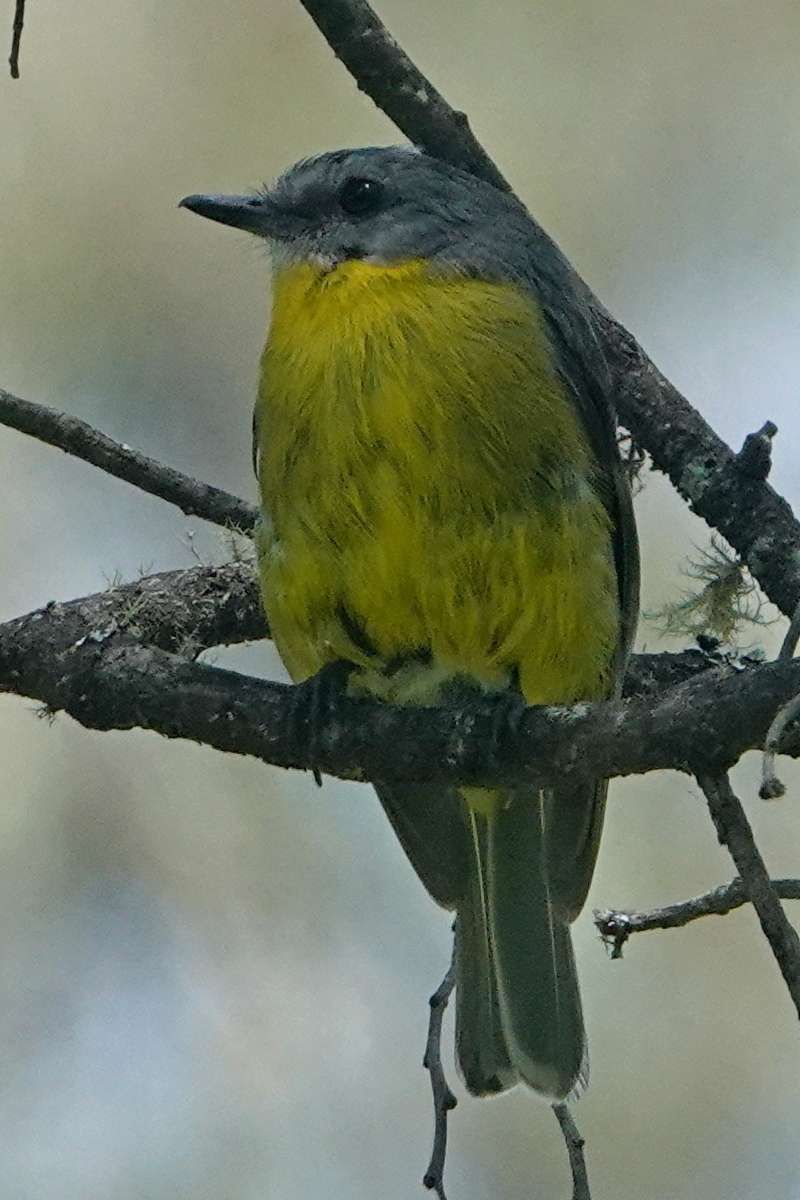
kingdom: Animalia
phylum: Chordata
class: Aves
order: Passeriformes
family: Petroicidae
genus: Eopsaltria
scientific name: Eopsaltria australis
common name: Eastern yellow robin
